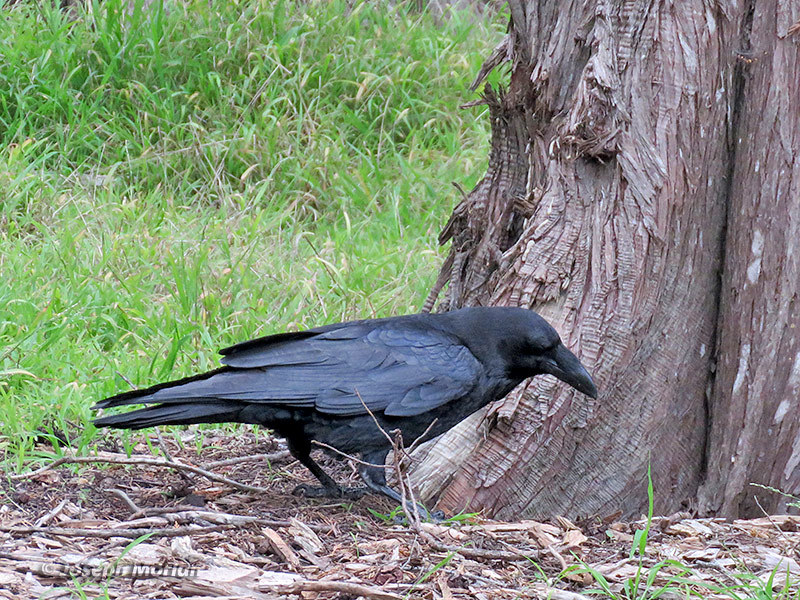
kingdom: Animalia
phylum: Chordata
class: Aves
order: Passeriformes
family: Corvidae
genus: Corvus
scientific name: Corvus corax
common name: Common raven
